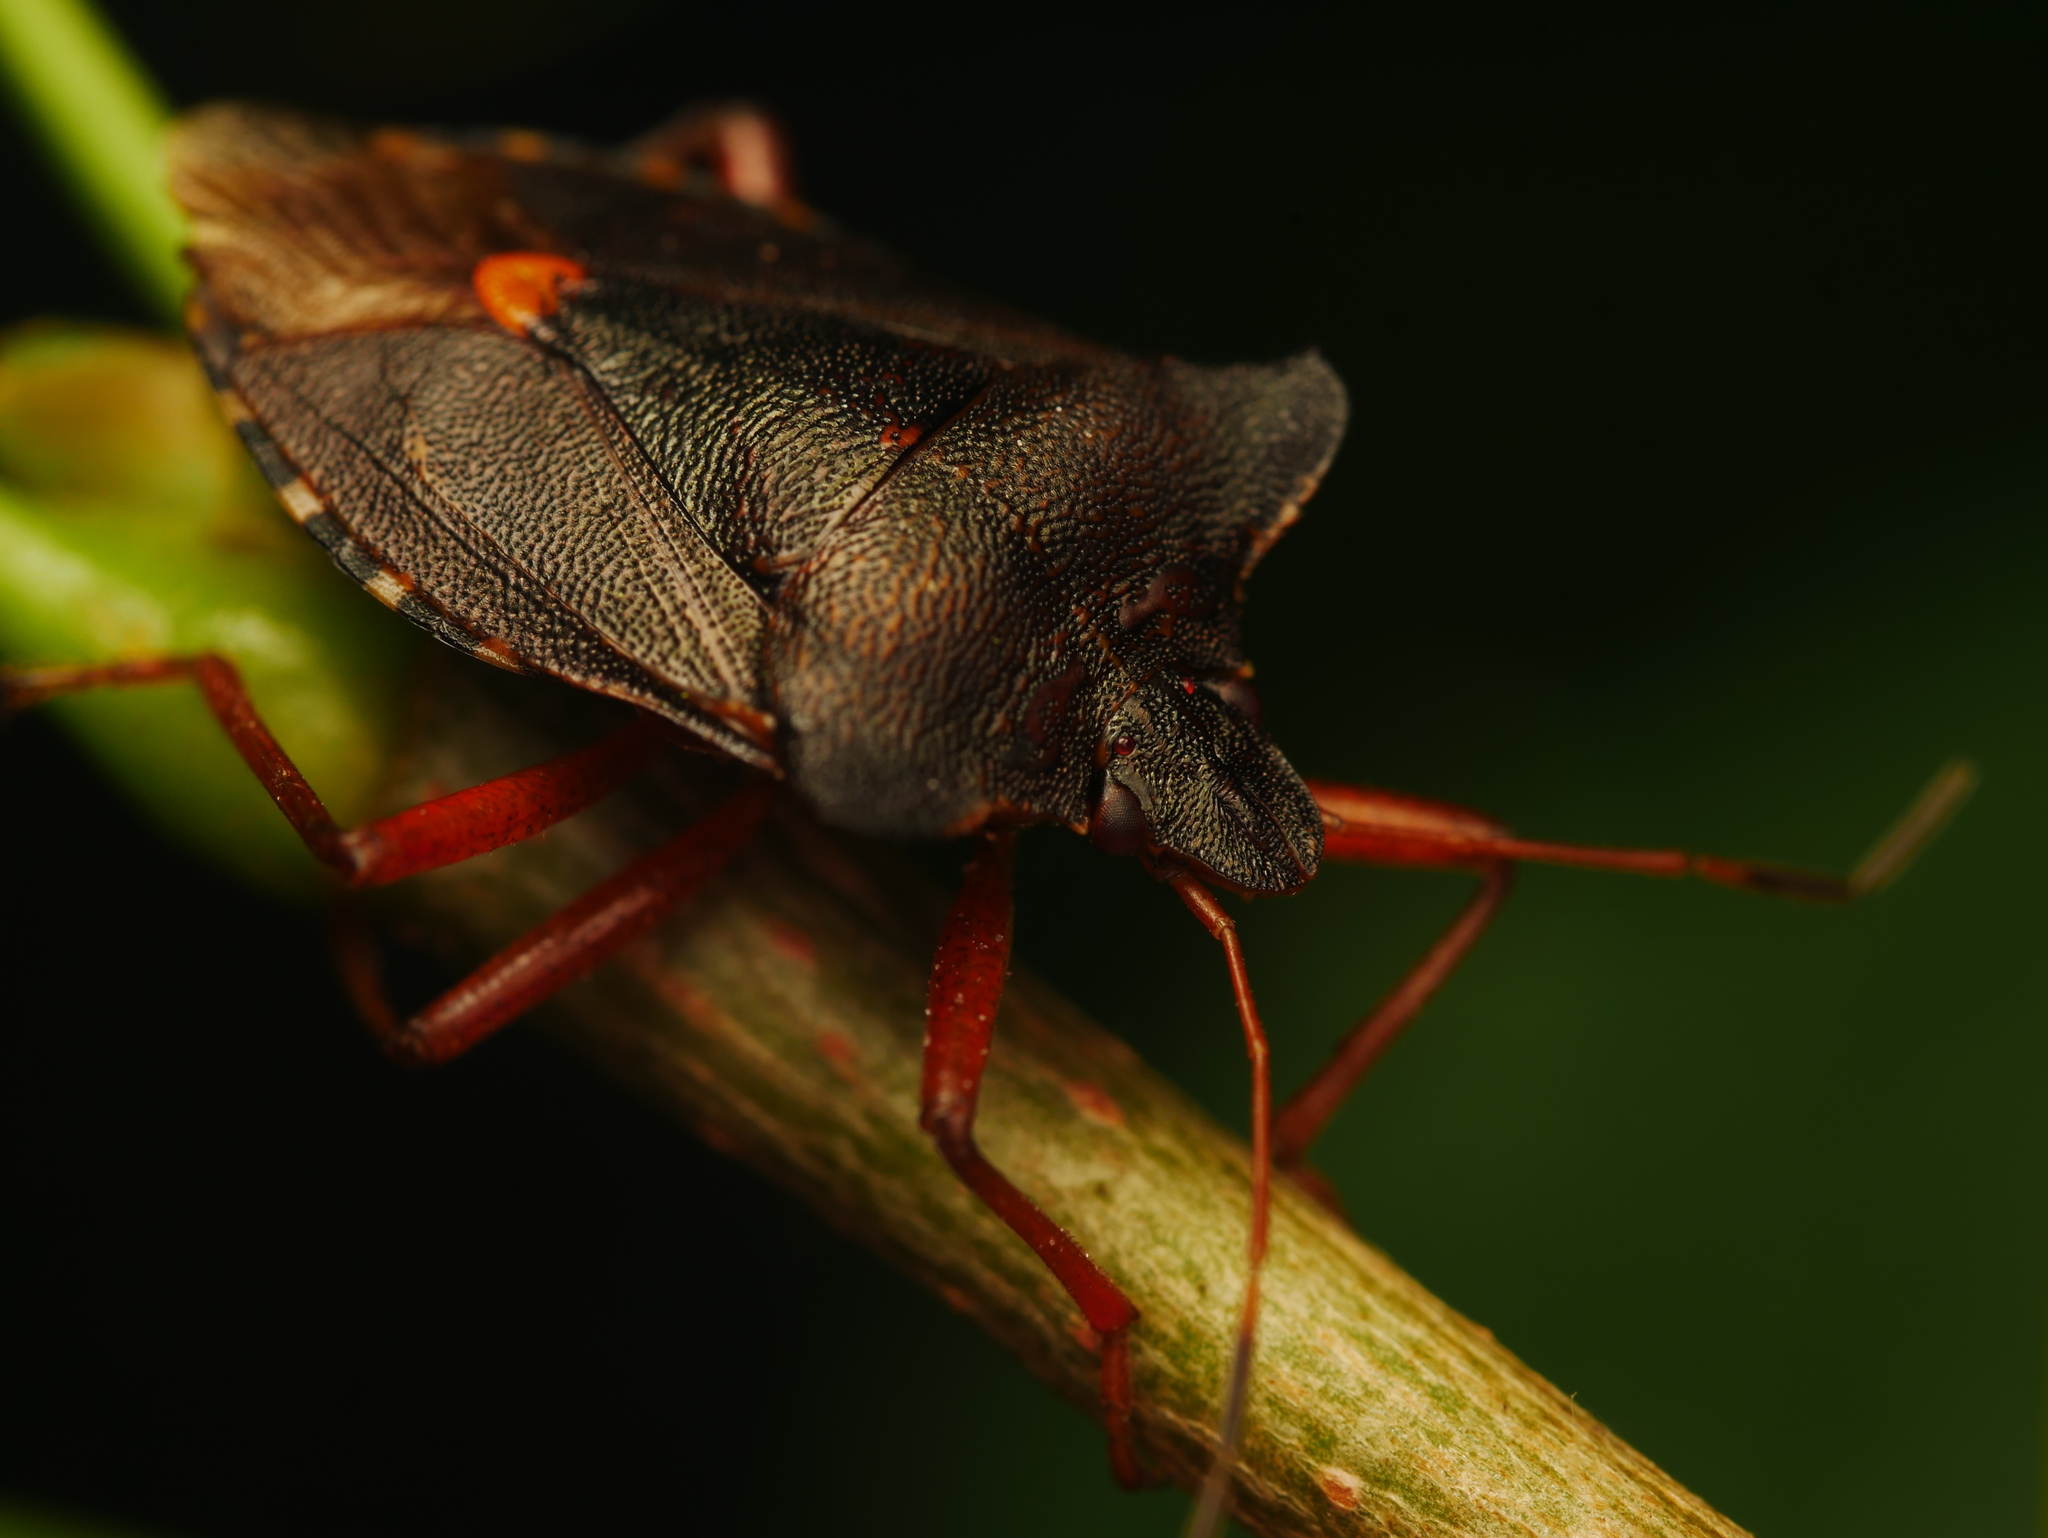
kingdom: Animalia
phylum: Arthropoda
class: Insecta
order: Hemiptera
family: Pentatomidae
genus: Pentatoma
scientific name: Pentatoma rufipes
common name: Forest bug
